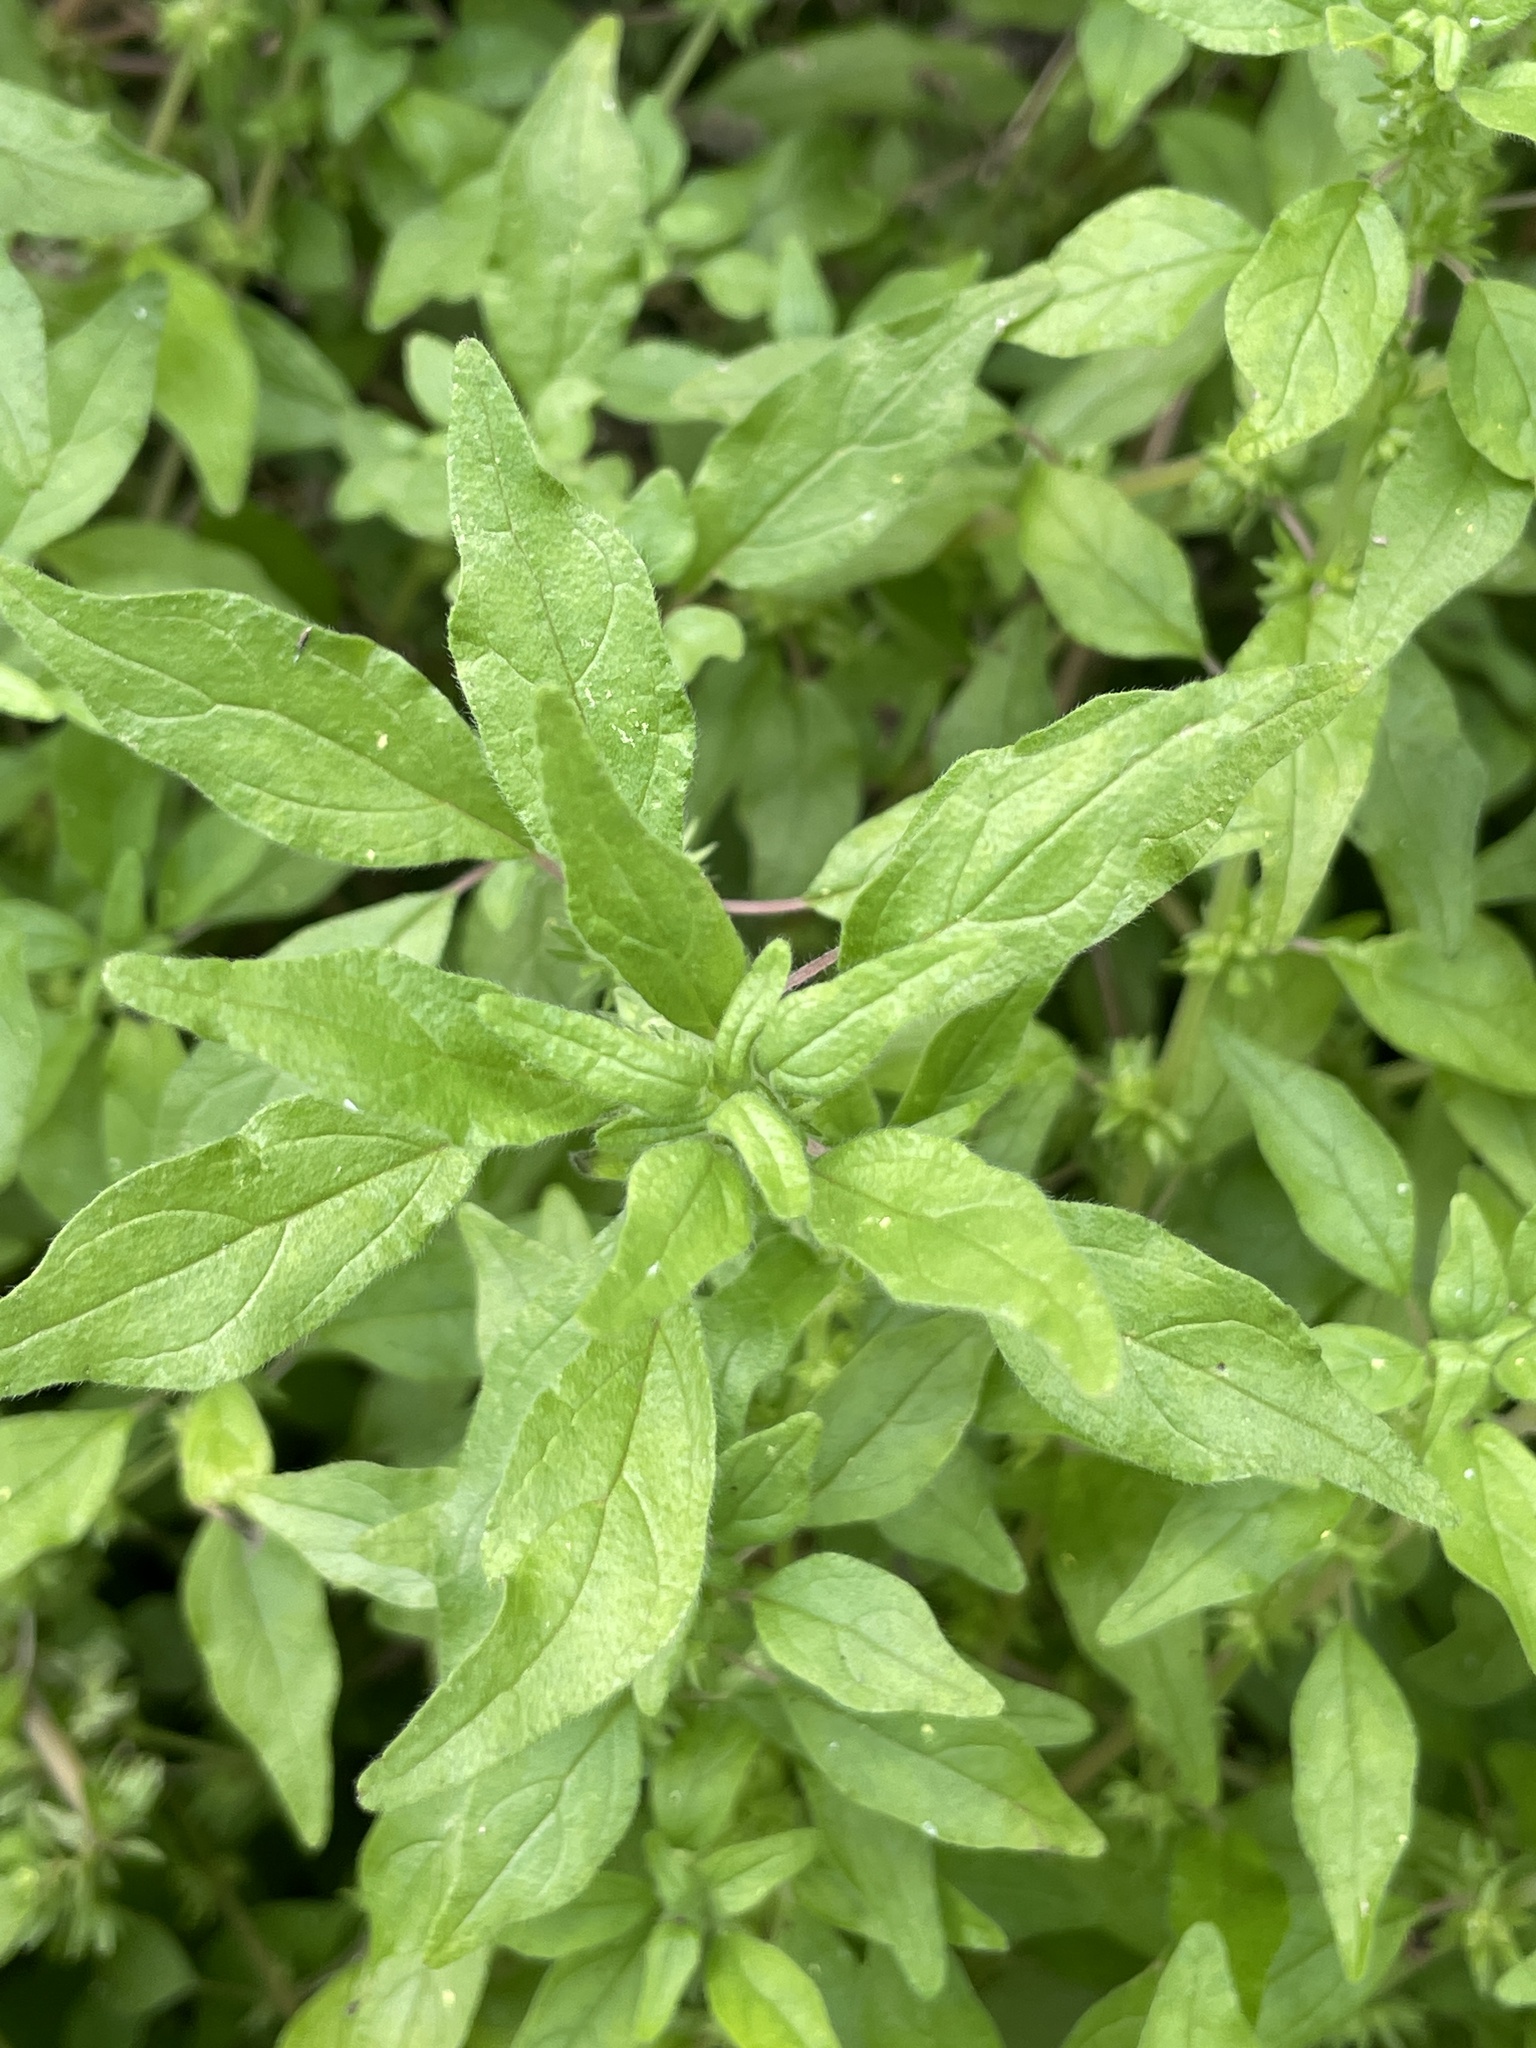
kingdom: Plantae
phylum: Tracheophyta
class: Magnoliopsida
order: Rosales
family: Urticaceae
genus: Parietaria
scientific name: Parietaria pensylvanica
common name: Pennsylvania pellitory
